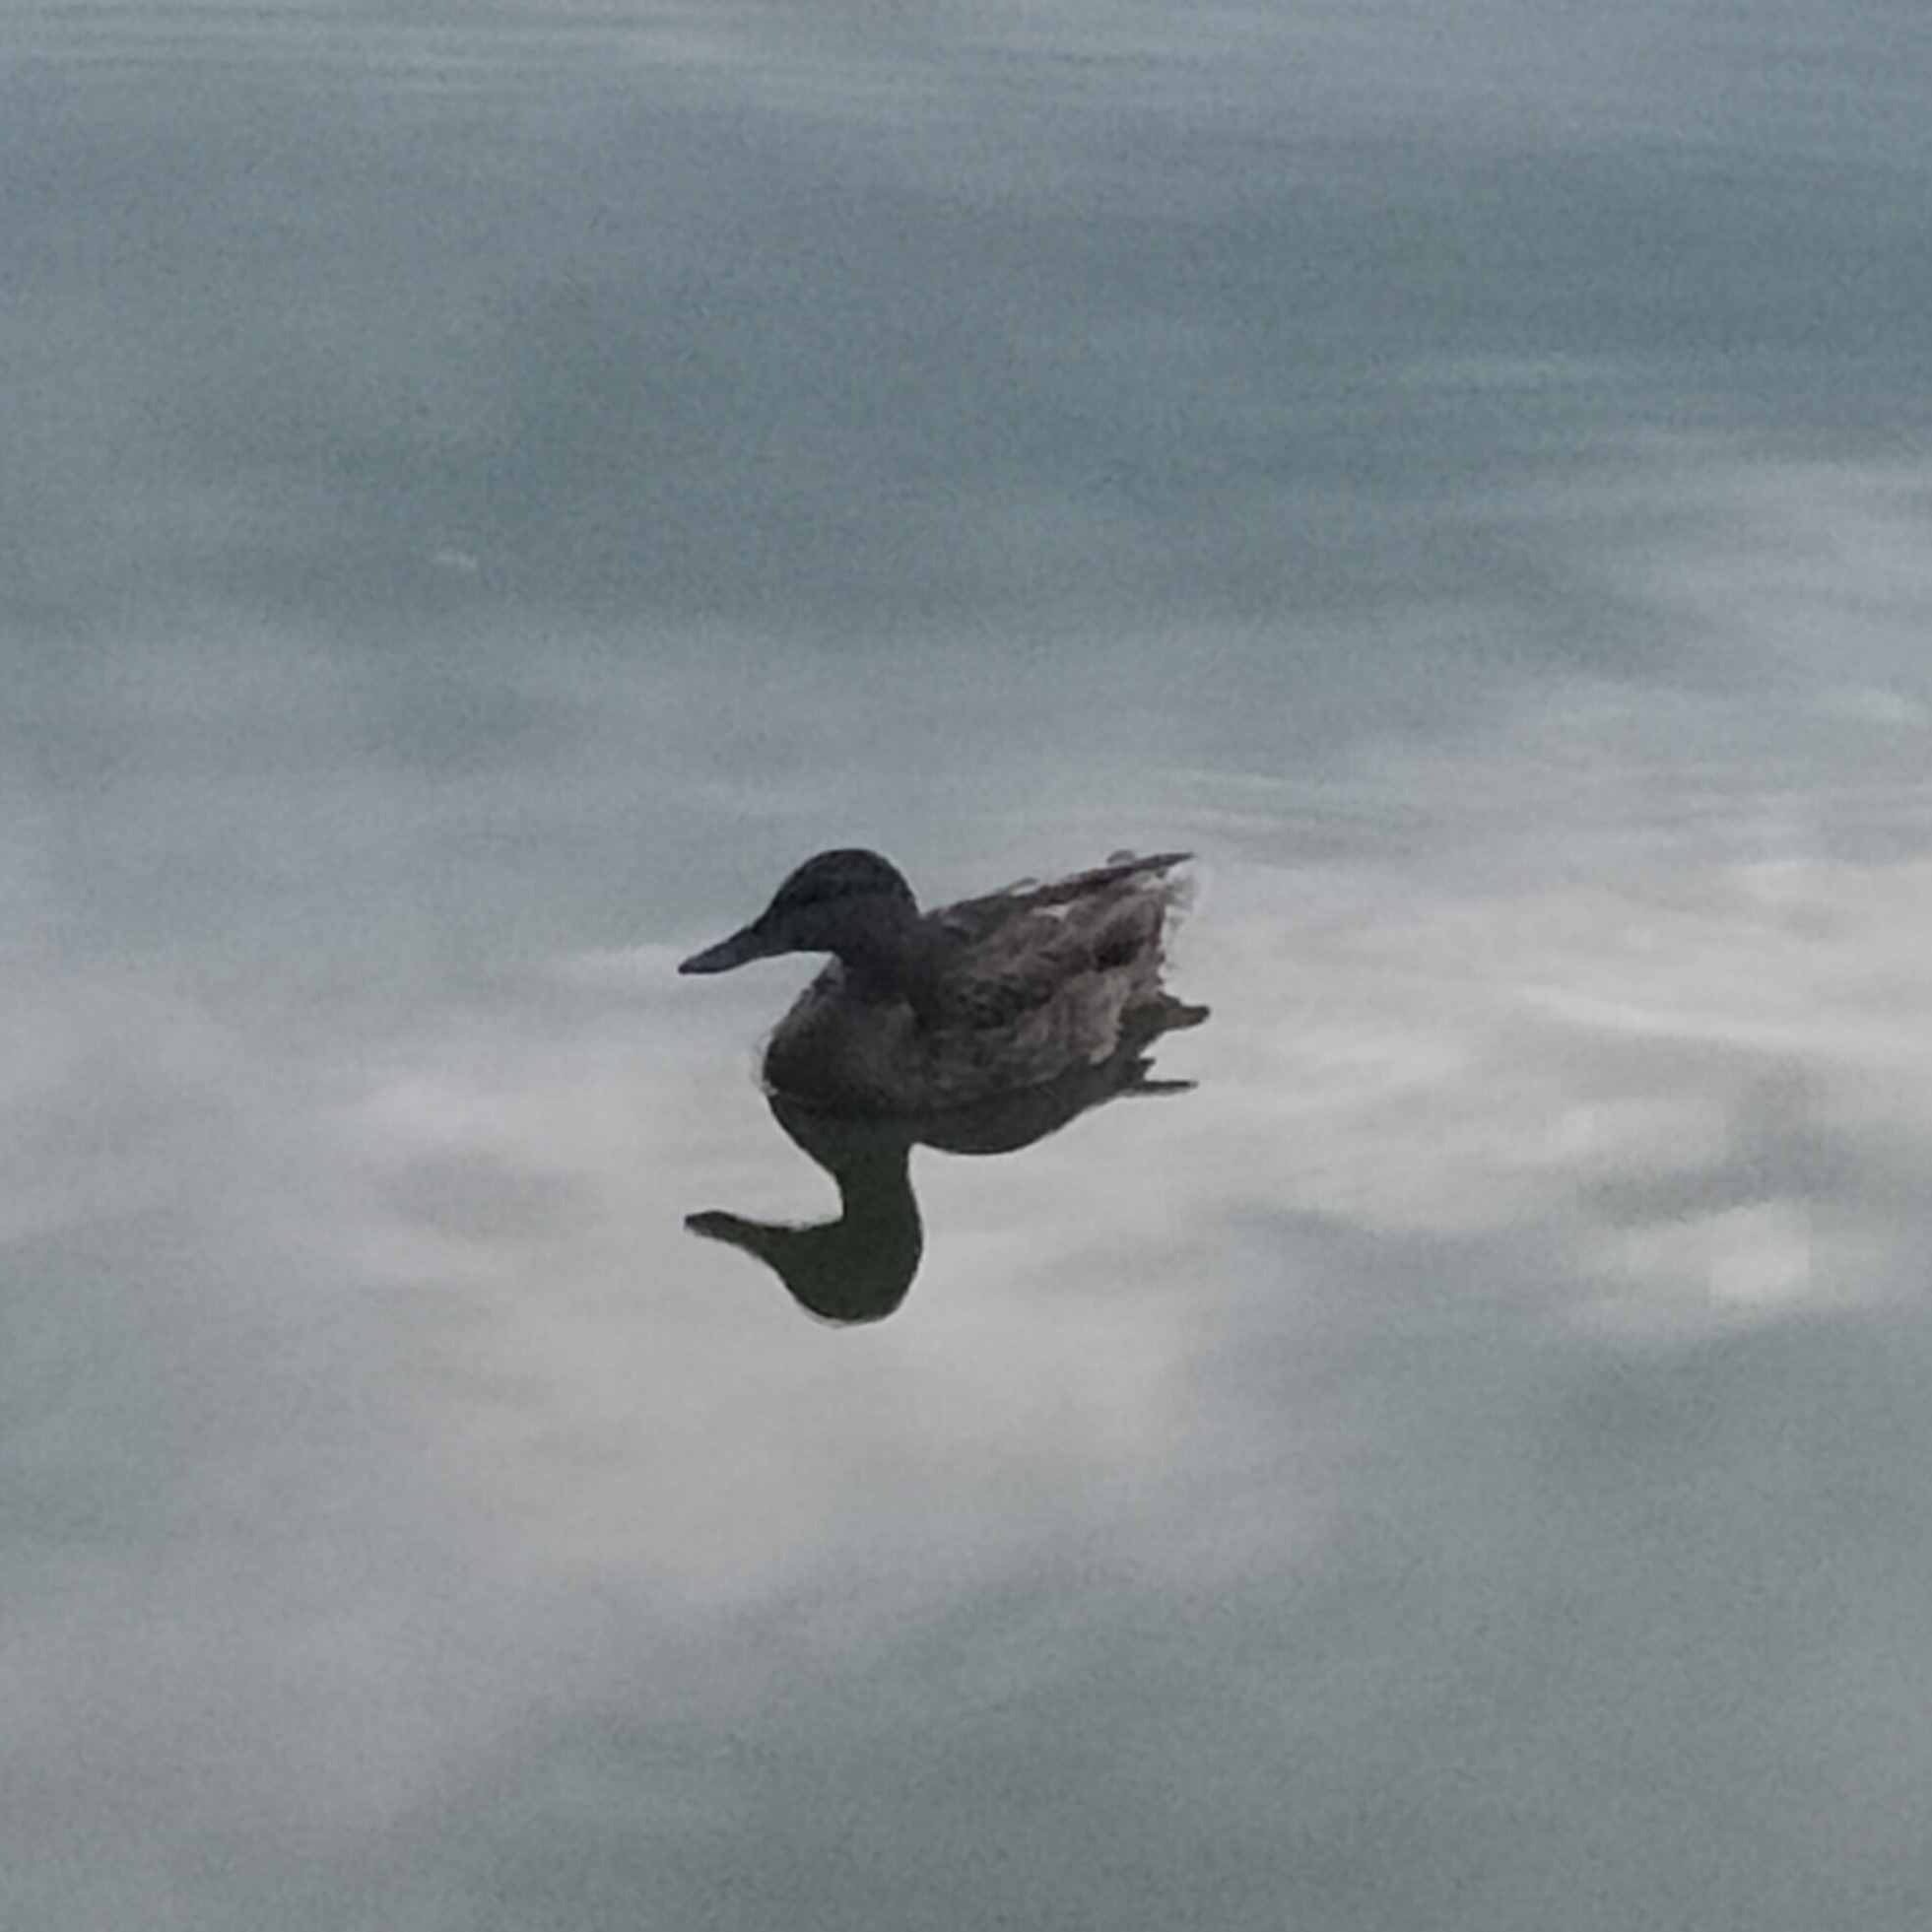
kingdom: Animalia
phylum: Chordata
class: Aves
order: Anseriformes
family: Anatidae
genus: Anas
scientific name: Anas platyrhynchos
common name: Mallard
